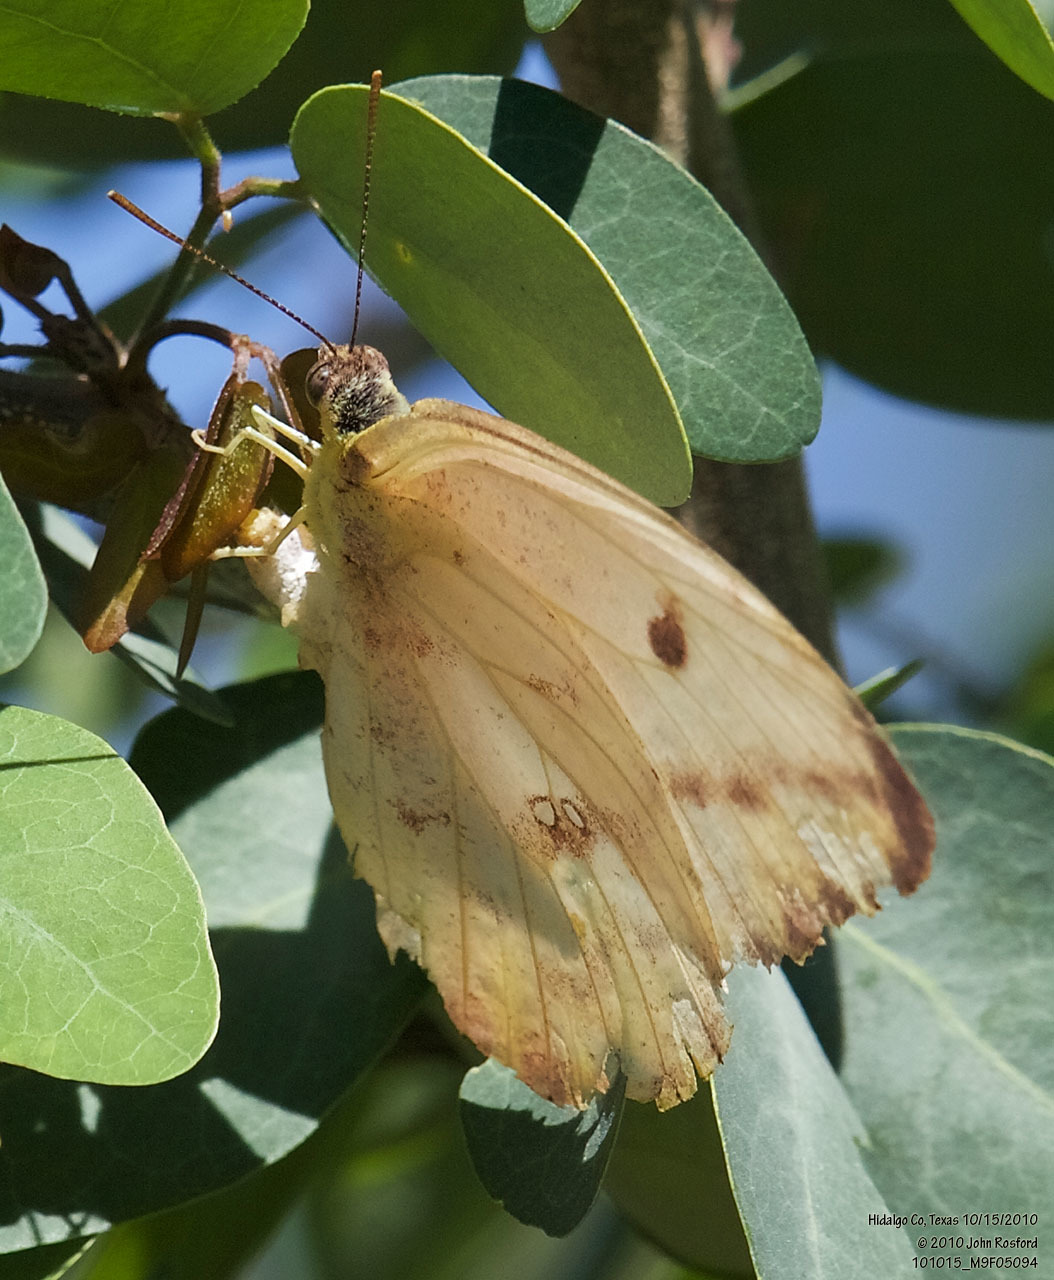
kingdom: Animalia
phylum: Arthropoda
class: Insecta
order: Lepidoptera
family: Pieridae
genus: Phoebis
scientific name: Phoebis agarithe
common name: Large orange sulphur
